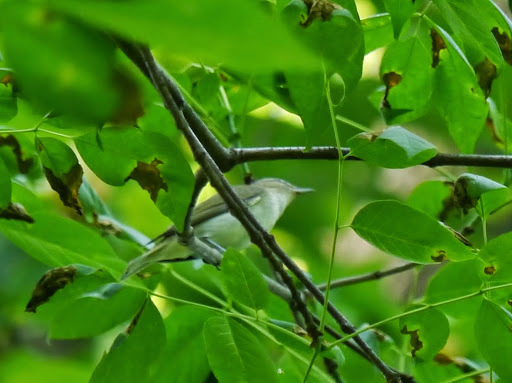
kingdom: Animalia
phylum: Chordata
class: Aves
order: Passeriformes
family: Vireonidae
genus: Vireo
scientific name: Vireo olivaceus
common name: Red-eyed vireo
